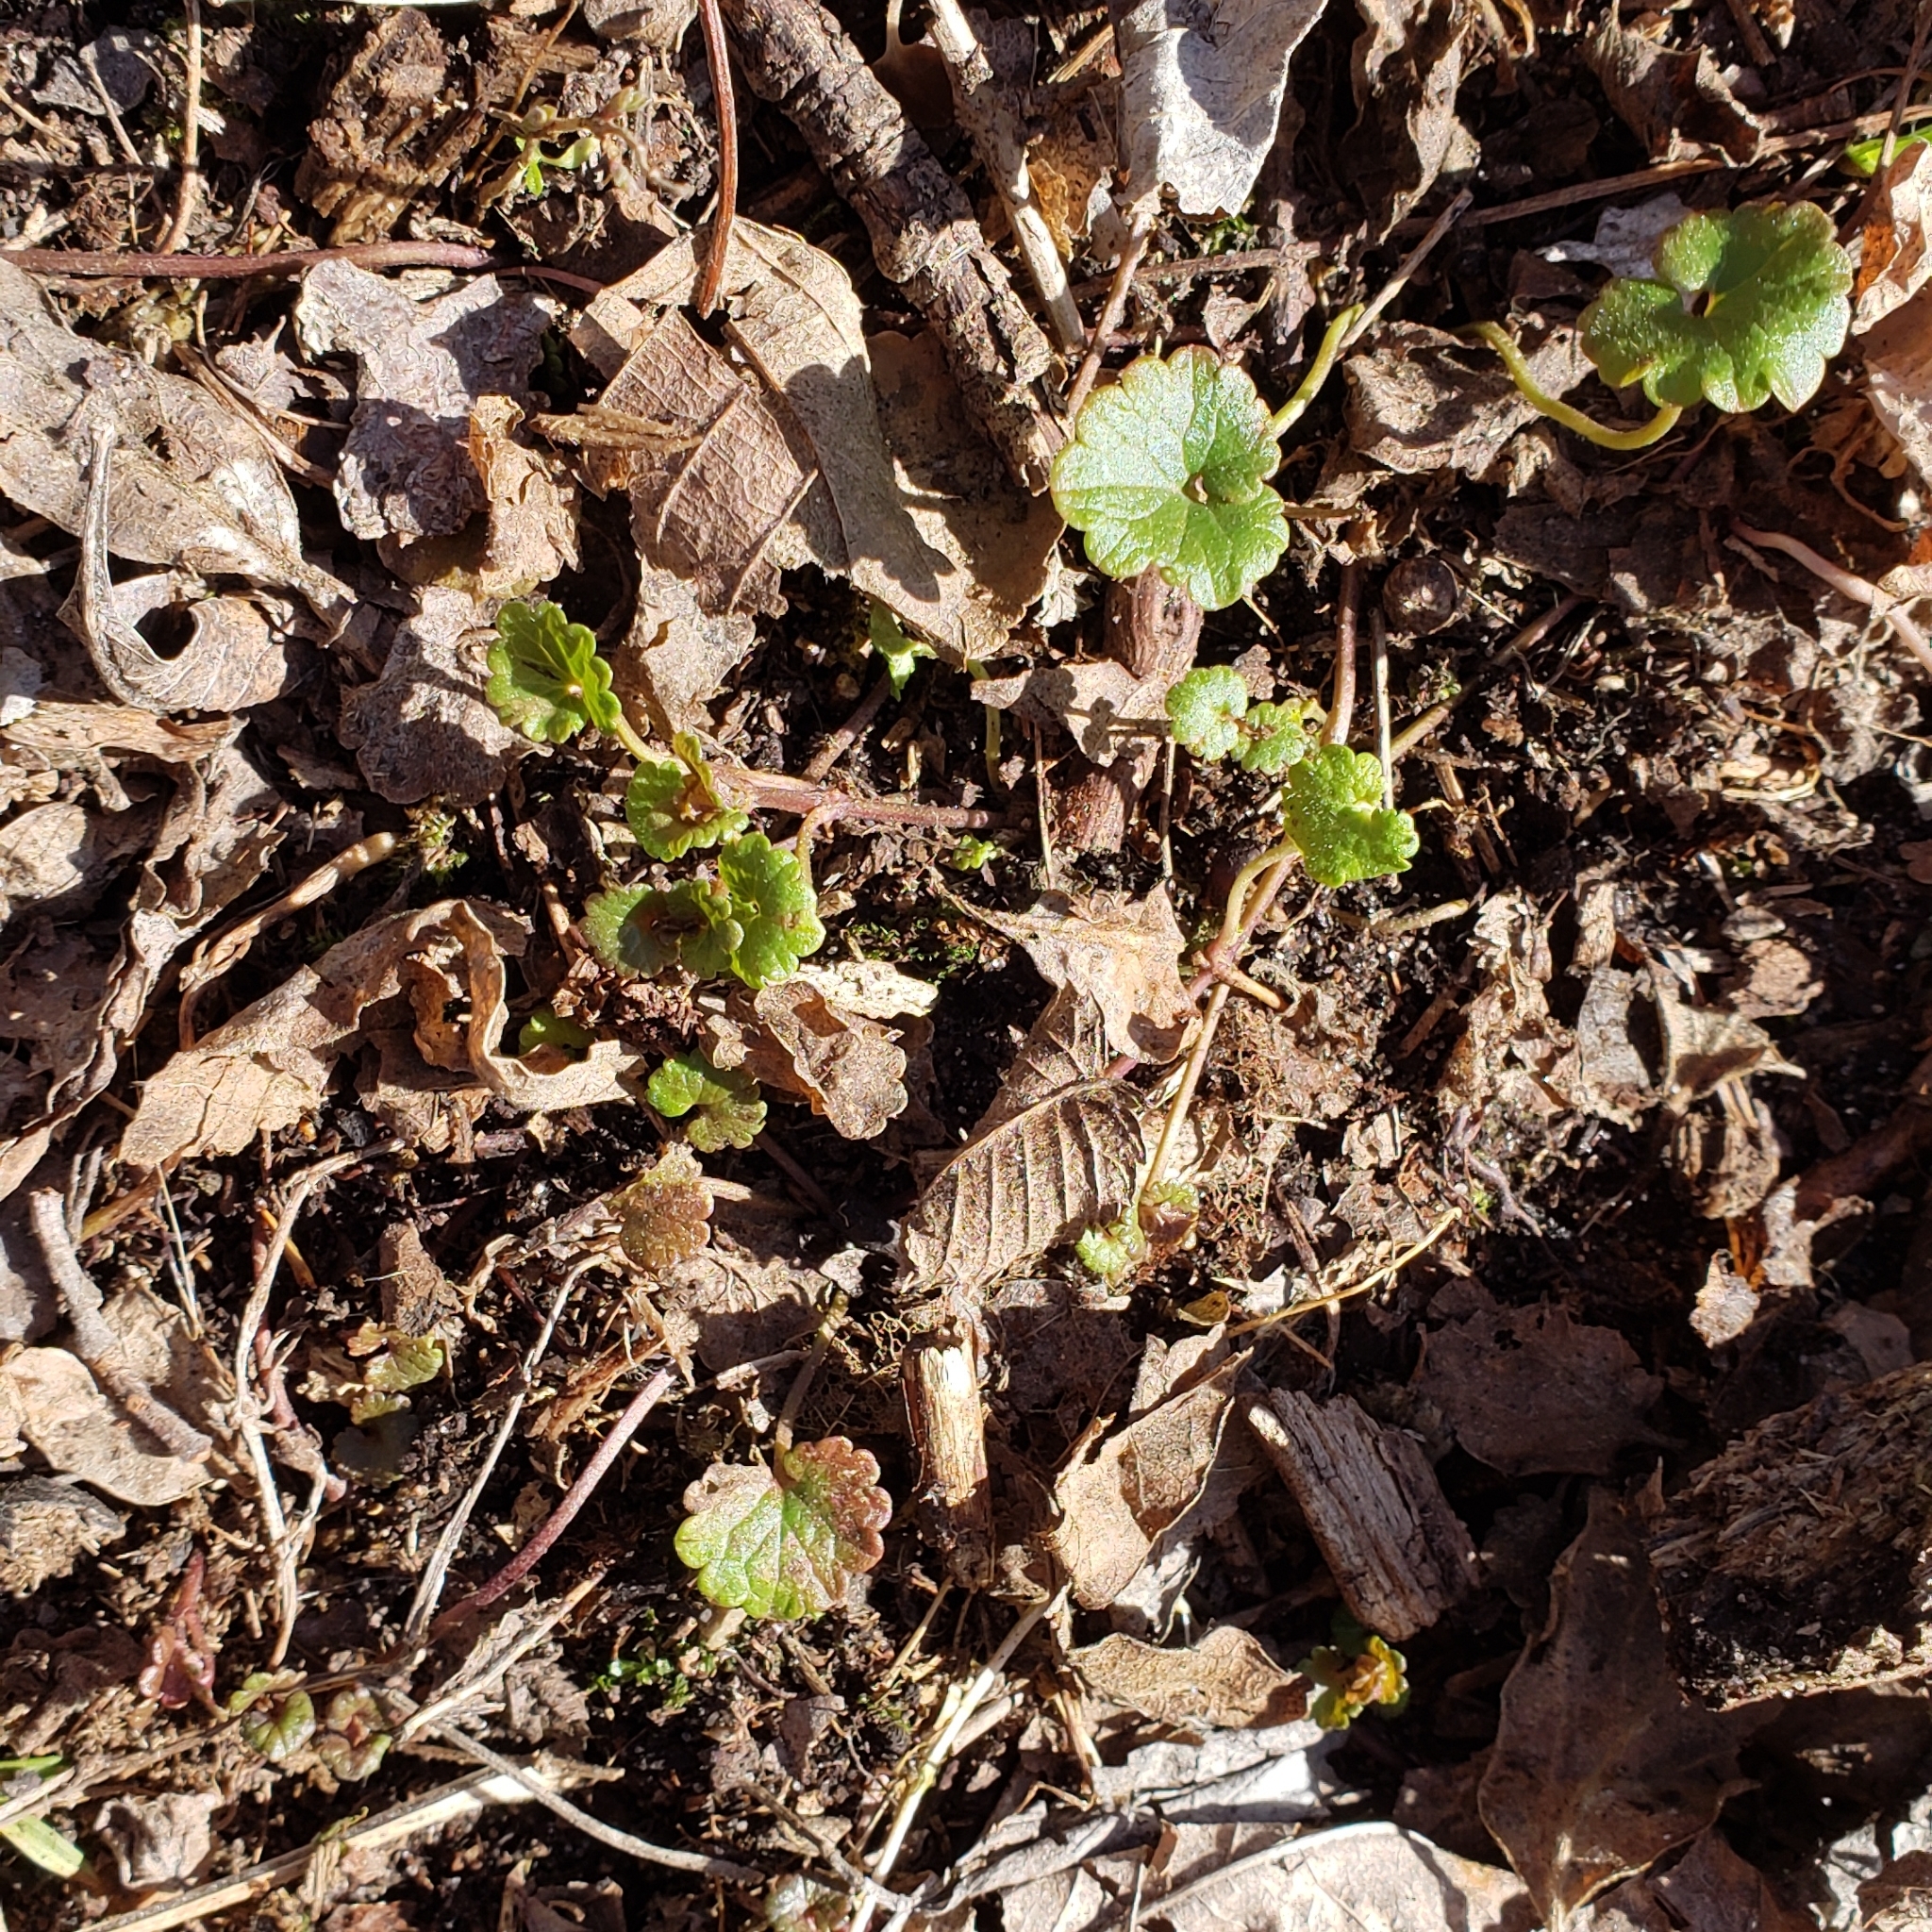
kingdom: Plantae
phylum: Tracheophyta
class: Magnoliopsida
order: Lamiales
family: Lamiaceae
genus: Glechoma
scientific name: Glechoma hederacea
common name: Ground ivy
